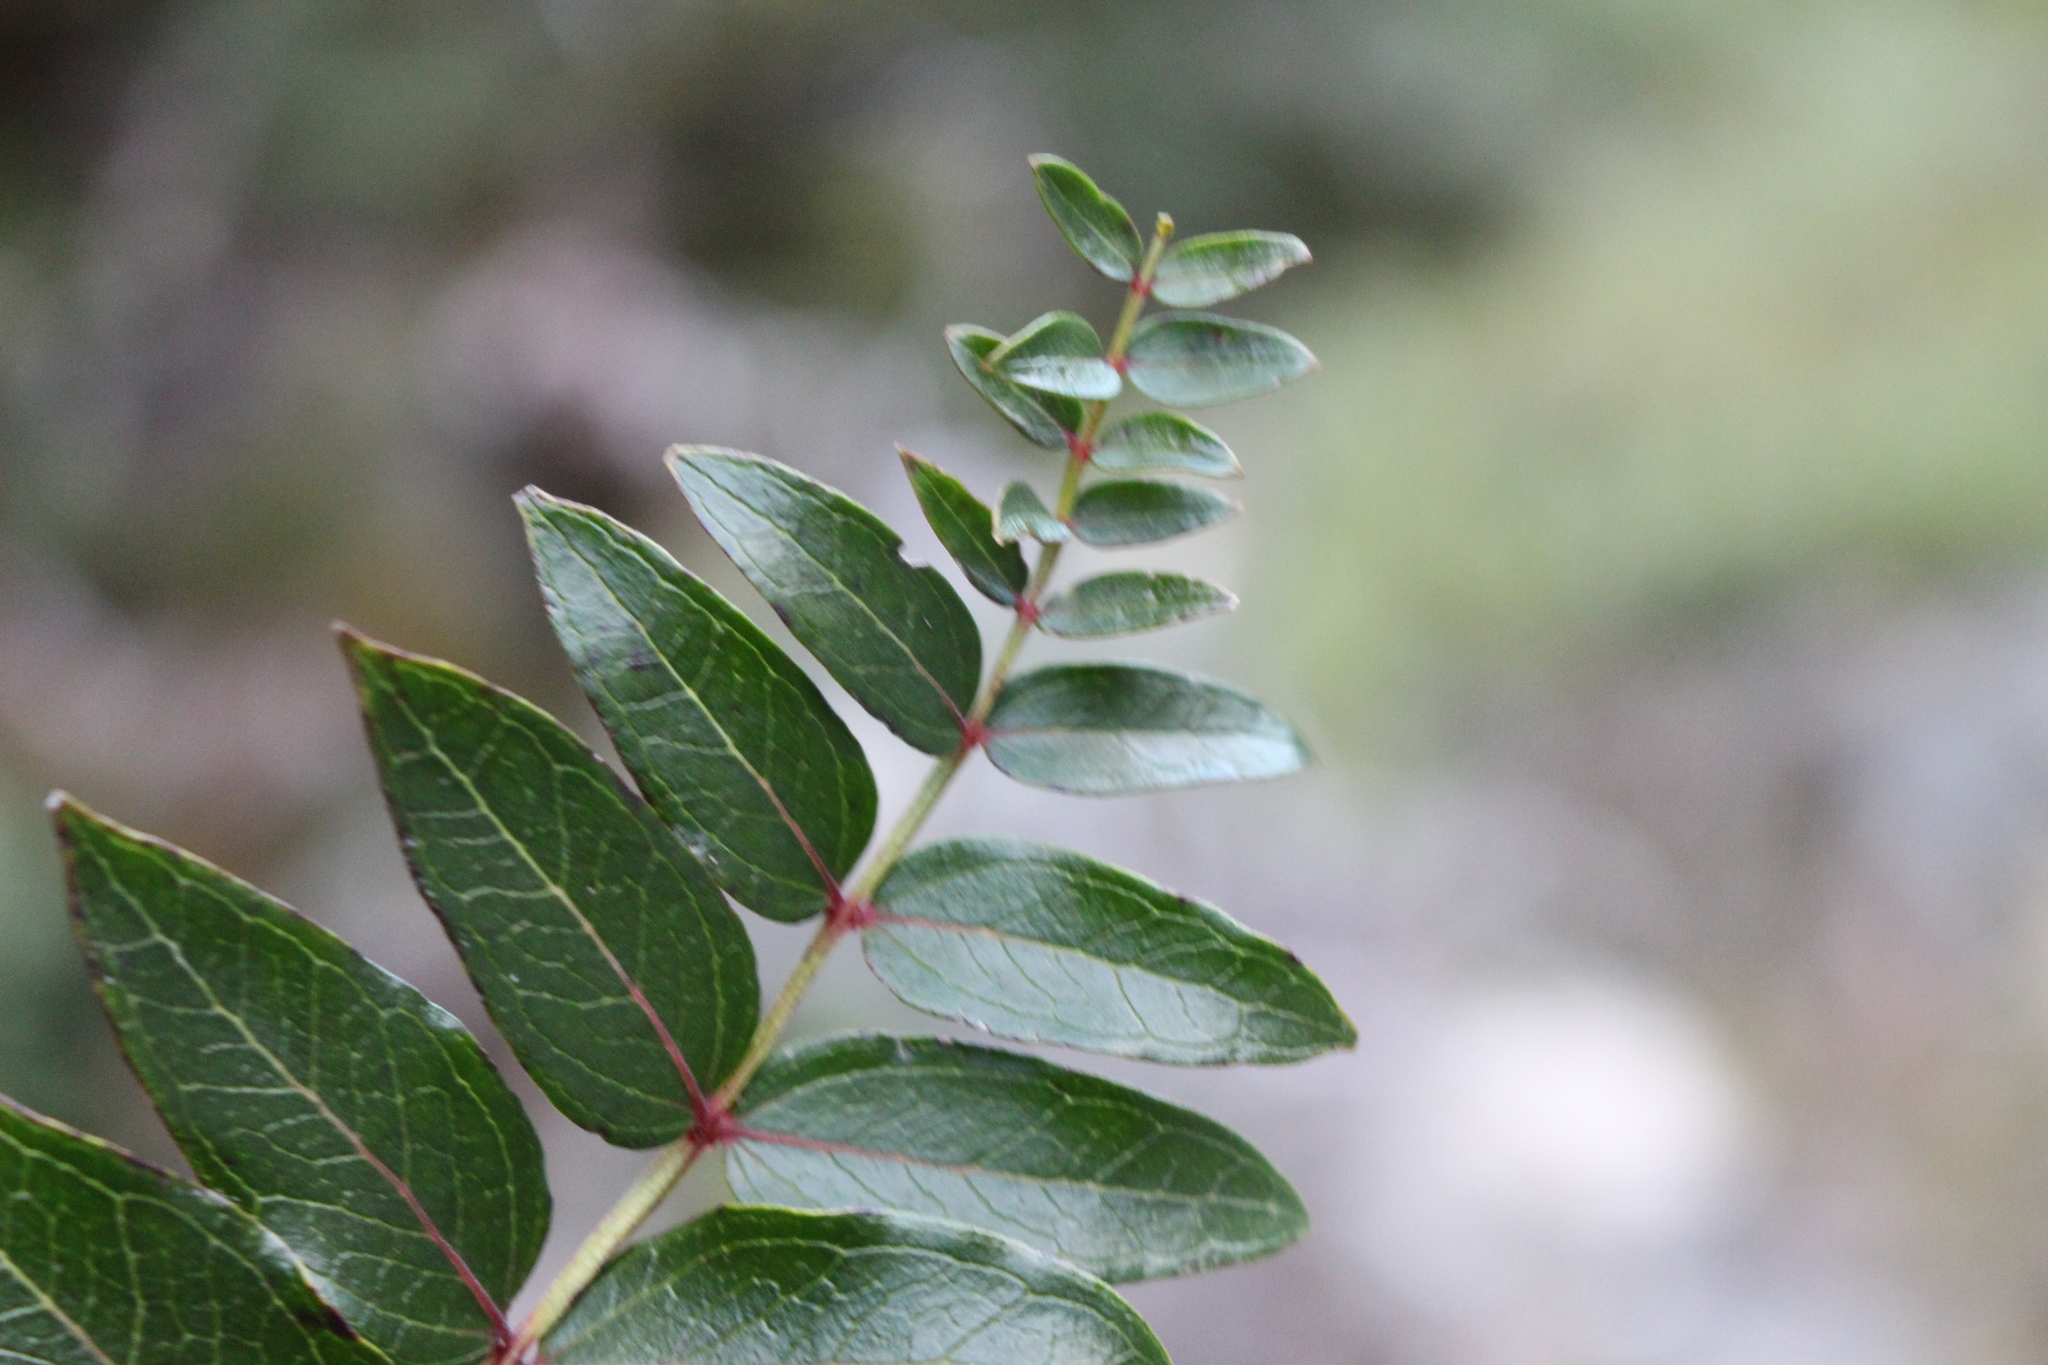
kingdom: Plantae
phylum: Tracheophyta
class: Magnoliopsida
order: Cucurbitales
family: Coriariaceae
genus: Coriaria
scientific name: Coriaria sarmentosa
